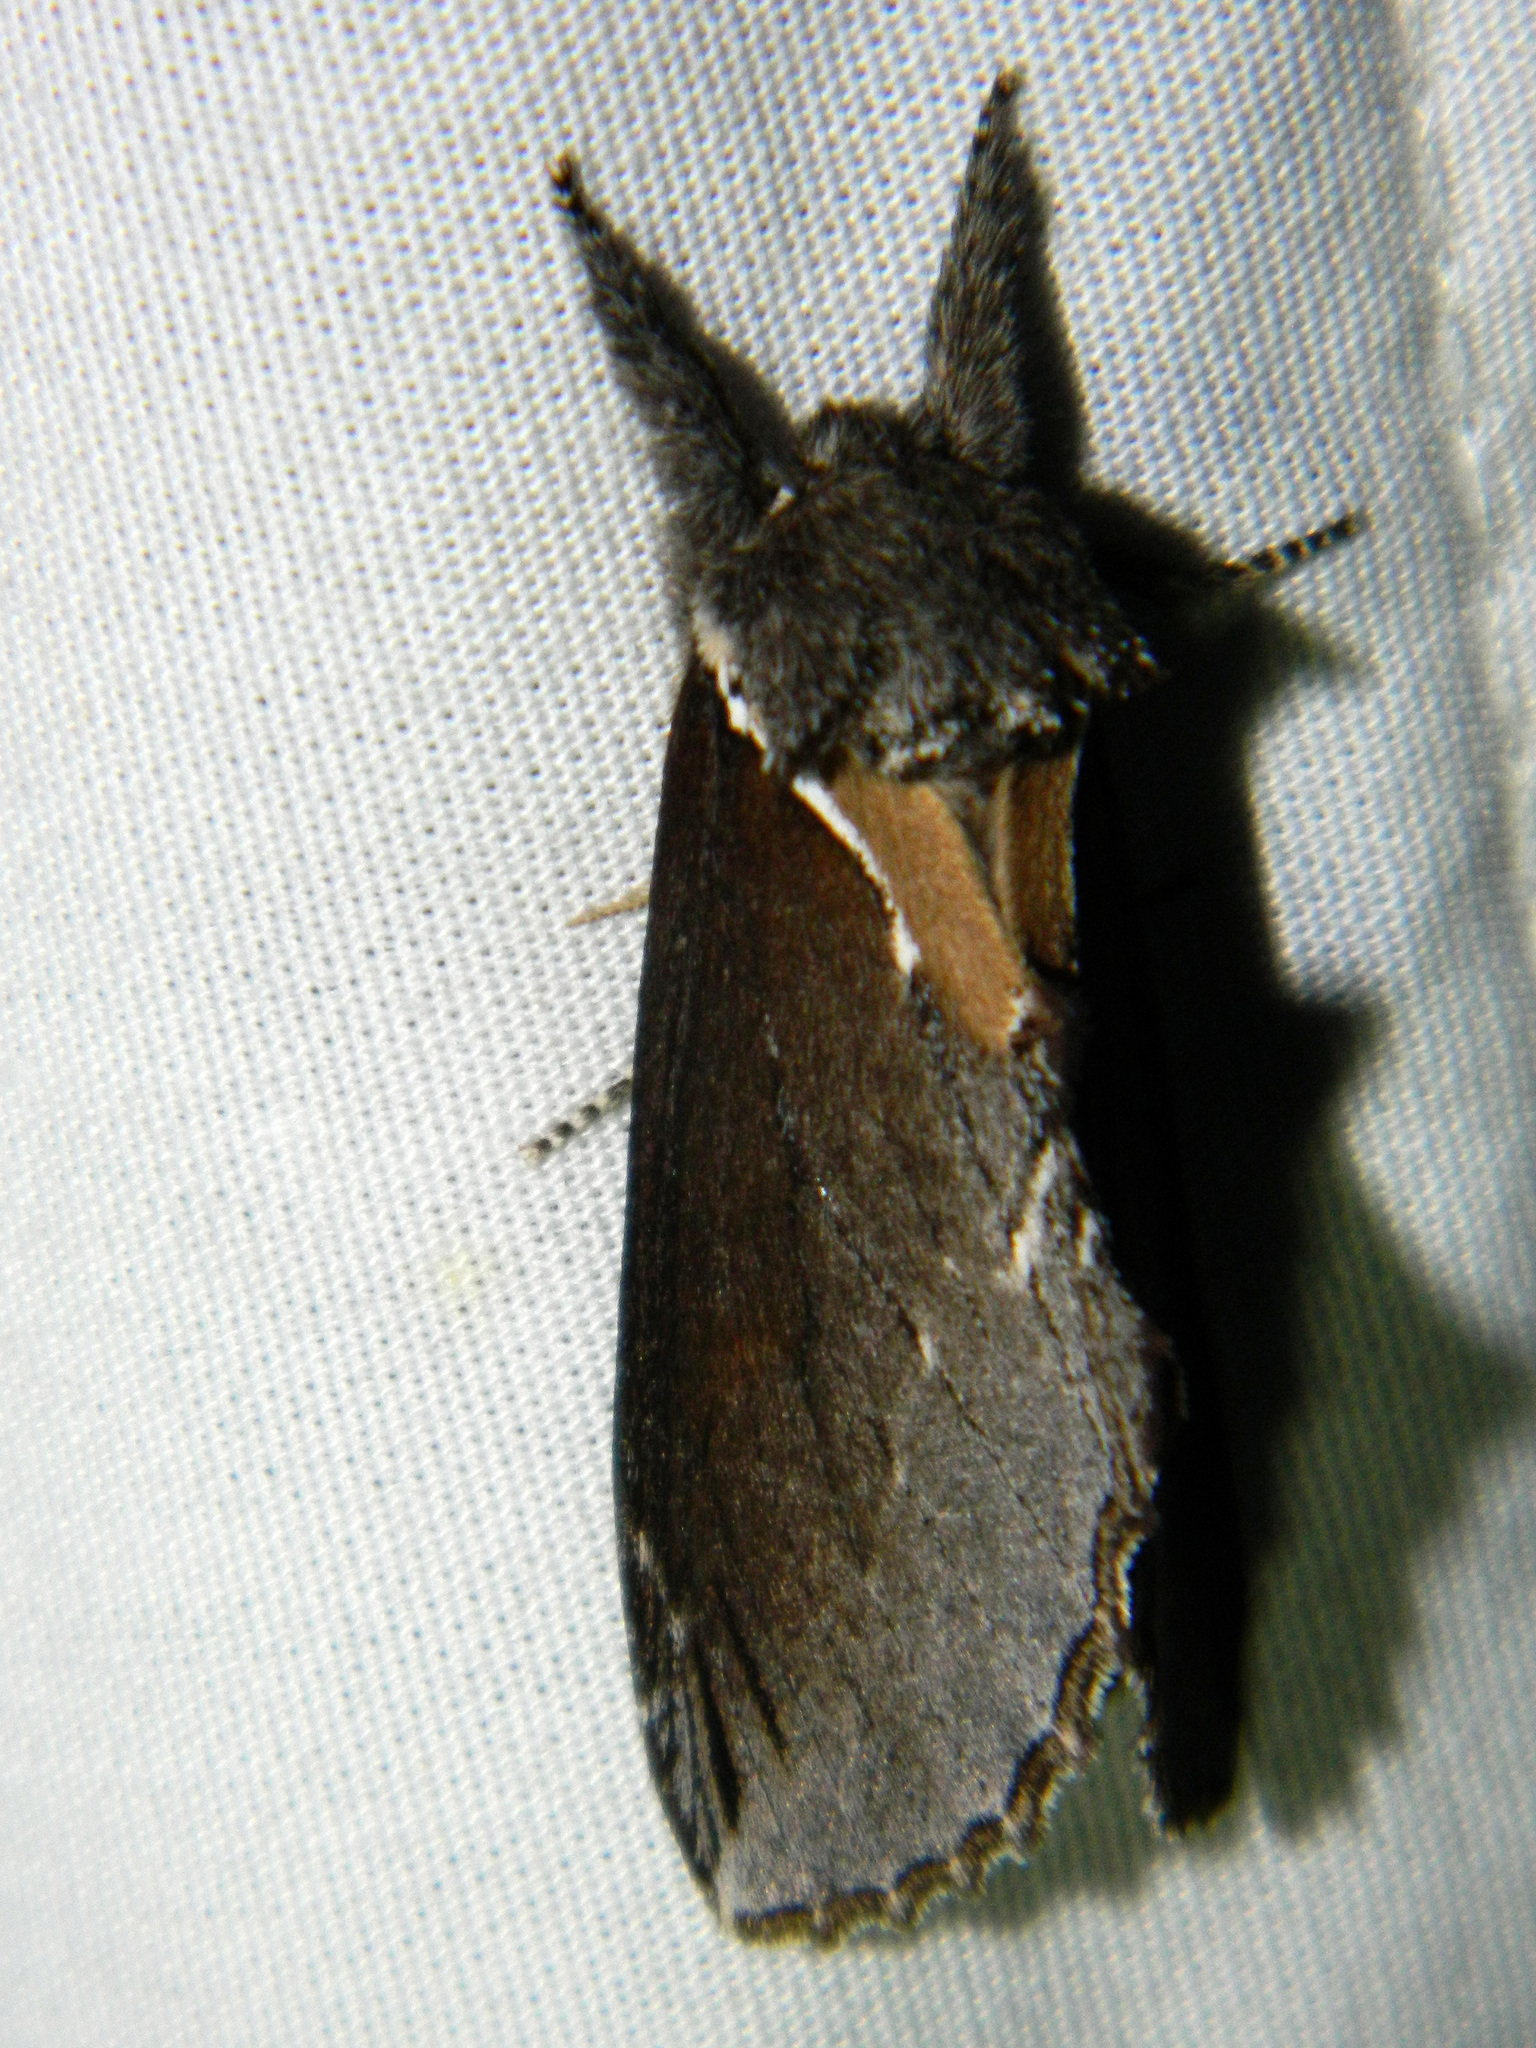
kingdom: Animalia
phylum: Arthropoda
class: Insecta
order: Lepidoptera
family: Notodontidae
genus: Pheosidea
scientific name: Pheosidea elegans
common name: Elegant prominent
